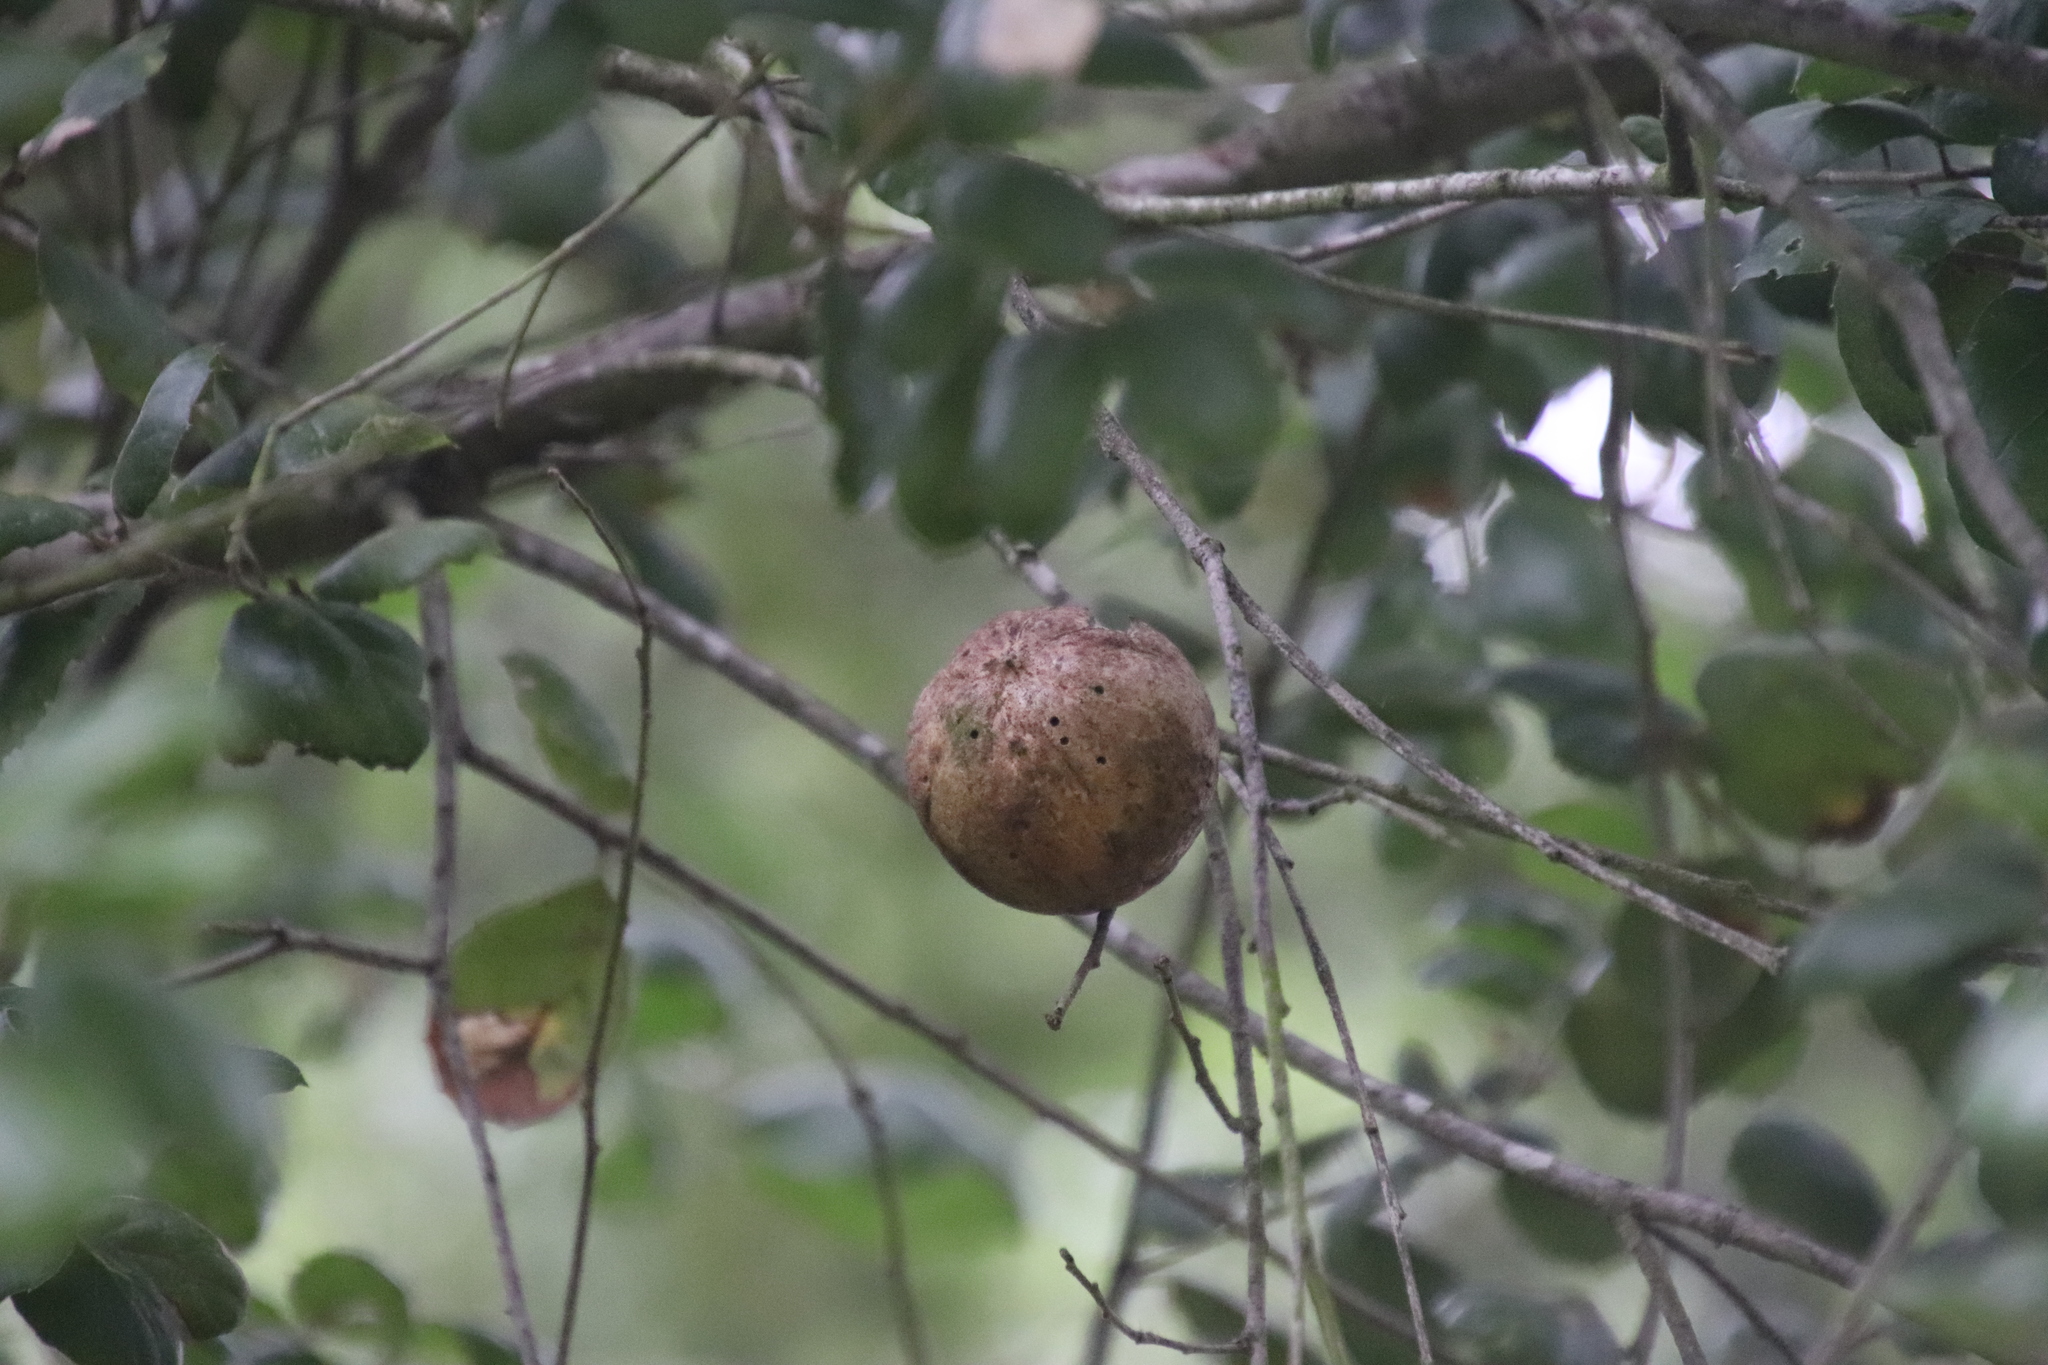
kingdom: Animalia
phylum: Arthropoda
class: Insecta
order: Hymenoptera
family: Cynipidae
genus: Amphibolips
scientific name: Amphibolips quercuspomiformis
